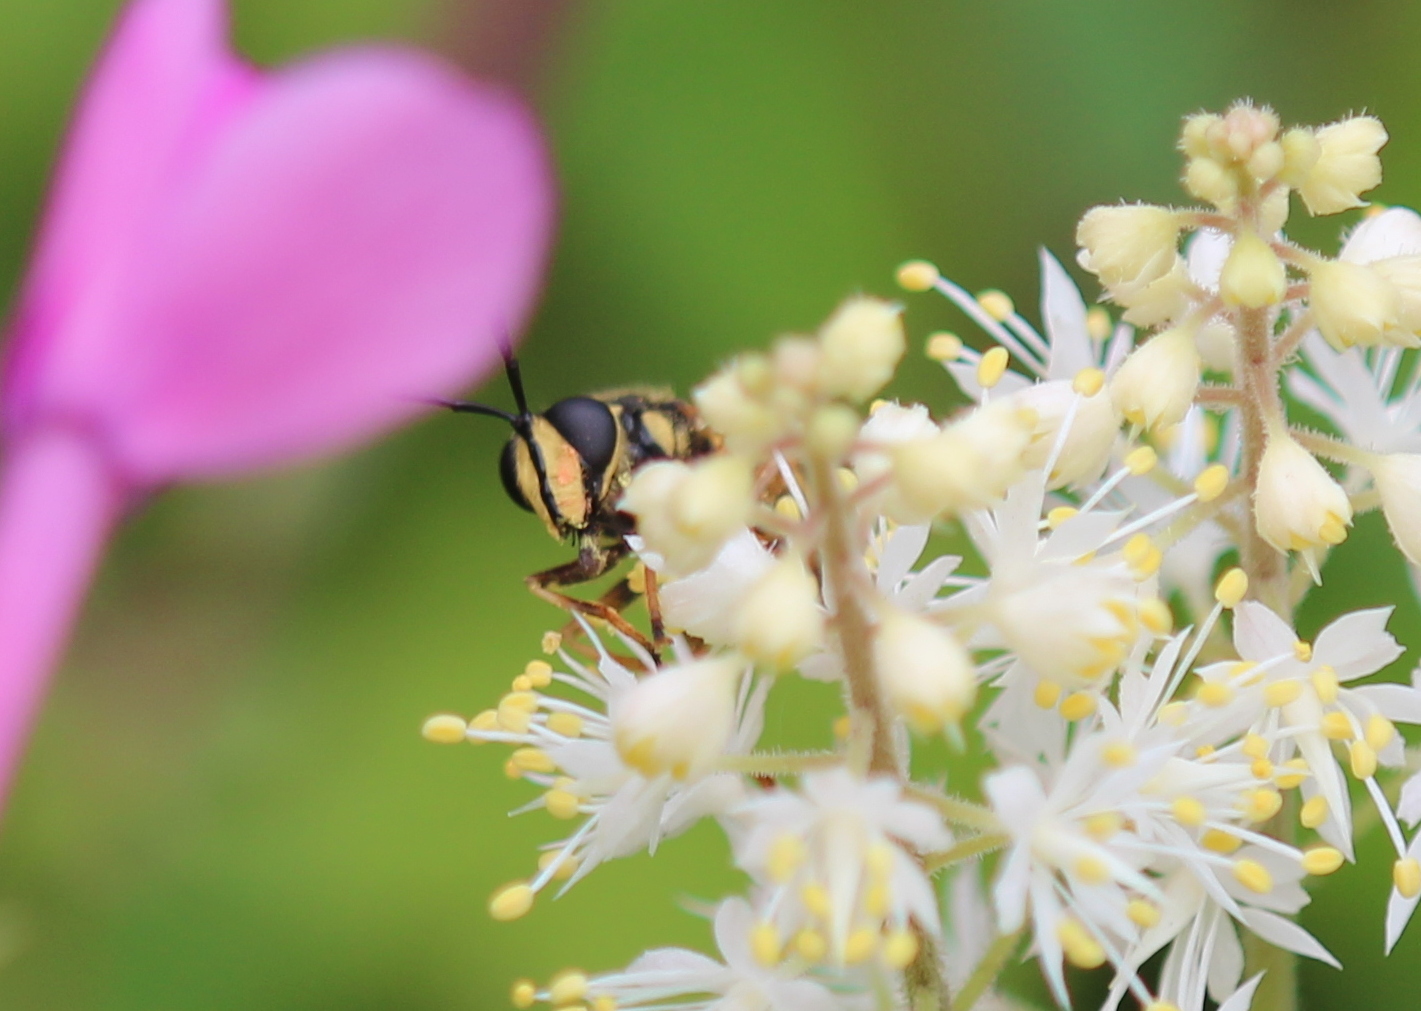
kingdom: Animalia
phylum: Arthropoda
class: Insecta
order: Diptera
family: Syrphidae
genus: Sphecomyia
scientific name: Sphecomyia vittata
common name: Long-horned yellowjacket fly
